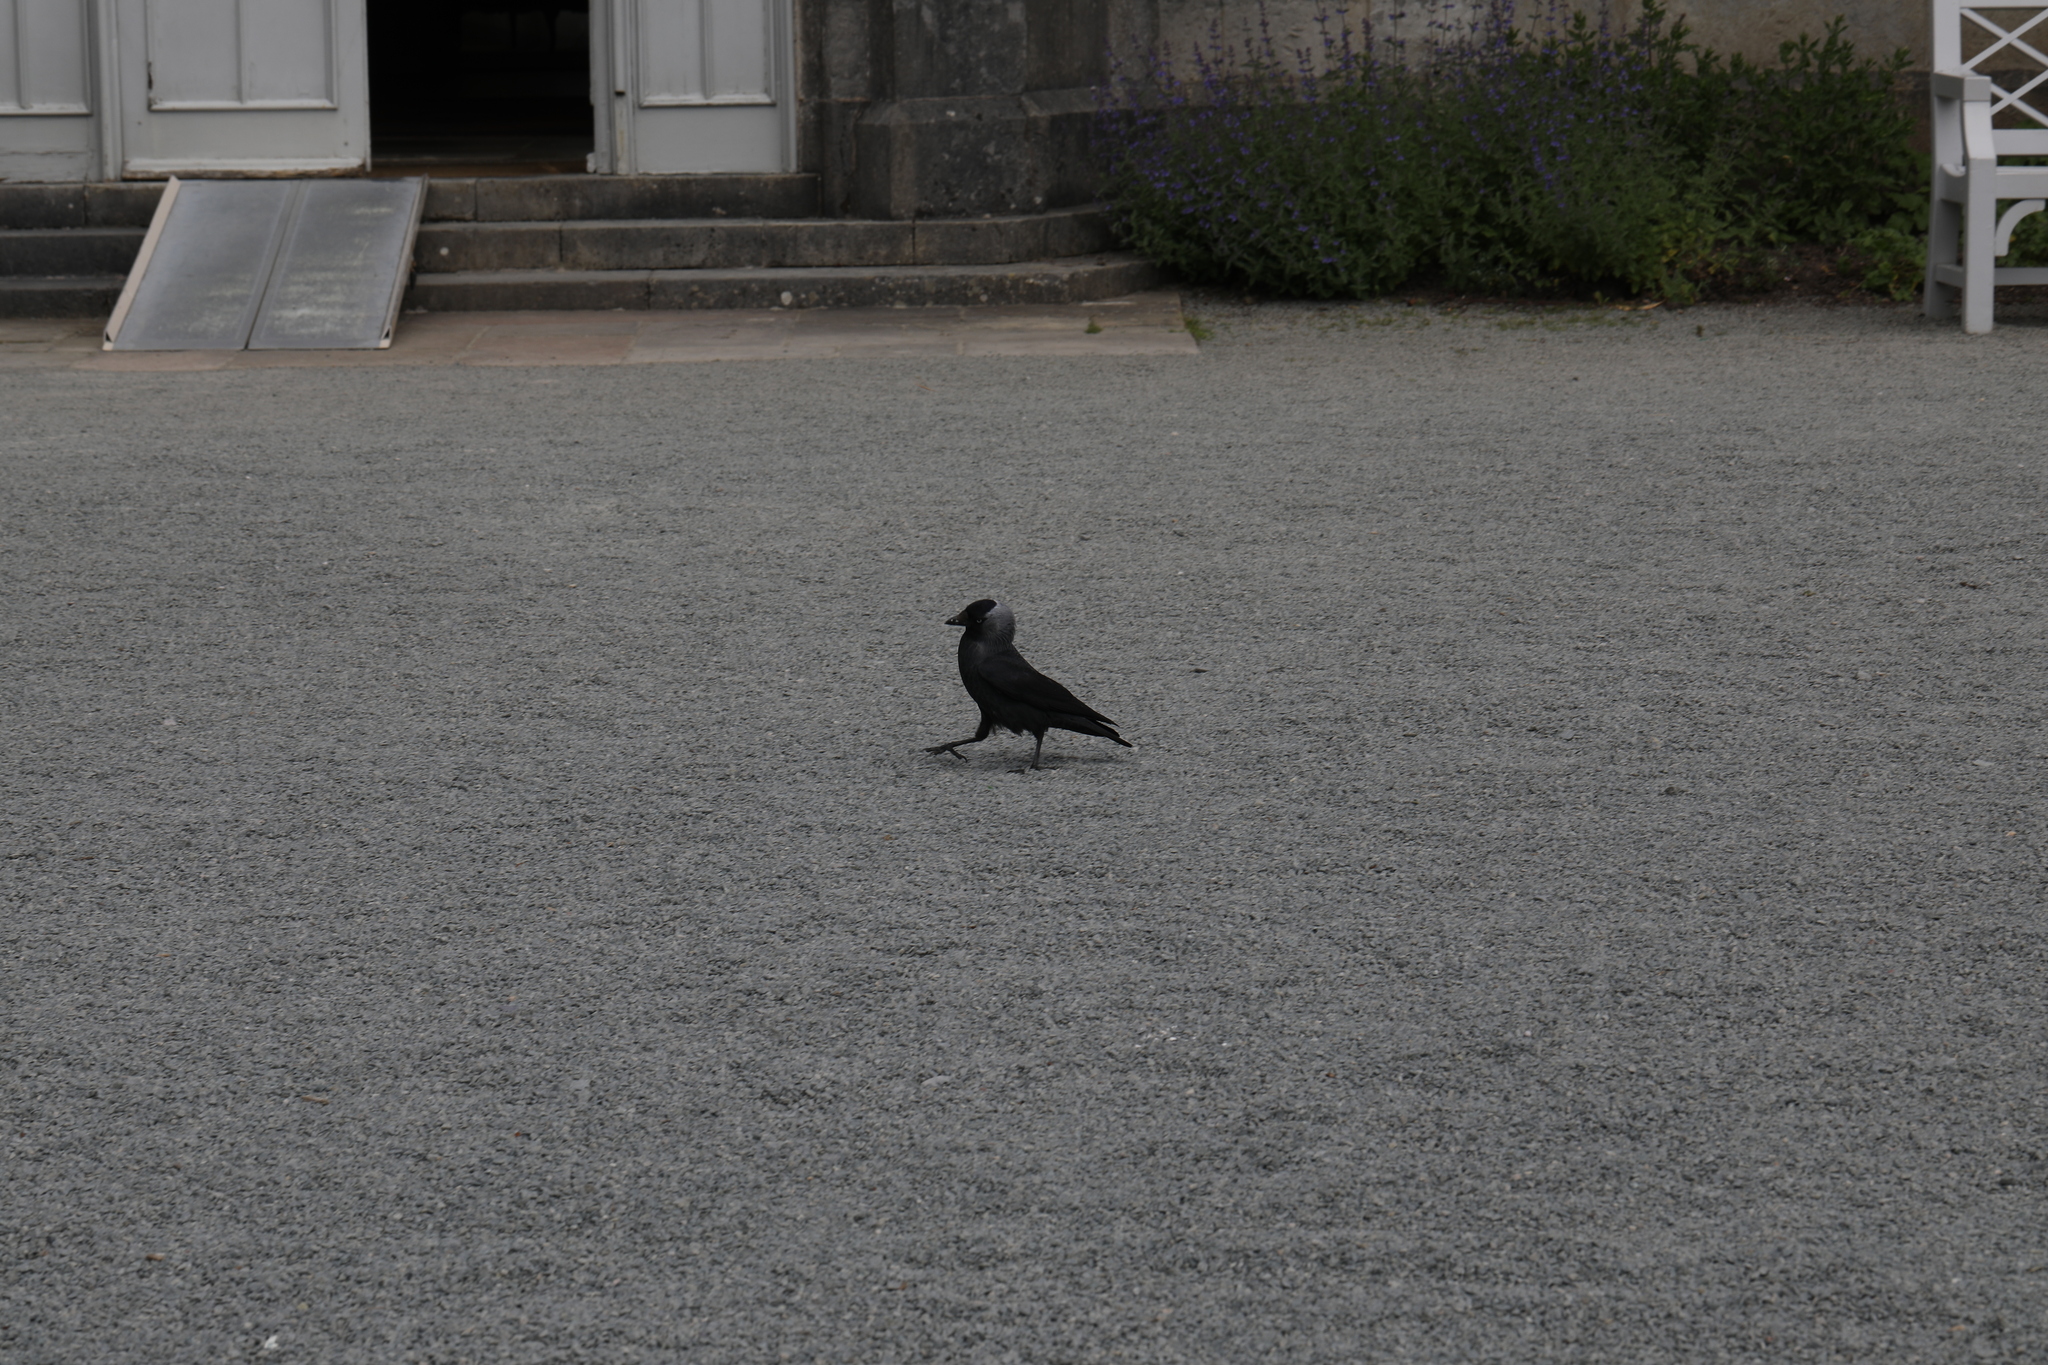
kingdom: Animalia
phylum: Chordata
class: Aves
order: Passeriformes
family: Corvidae
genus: Coloeus
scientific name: Coloeus monedula
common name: Western jackdaw
